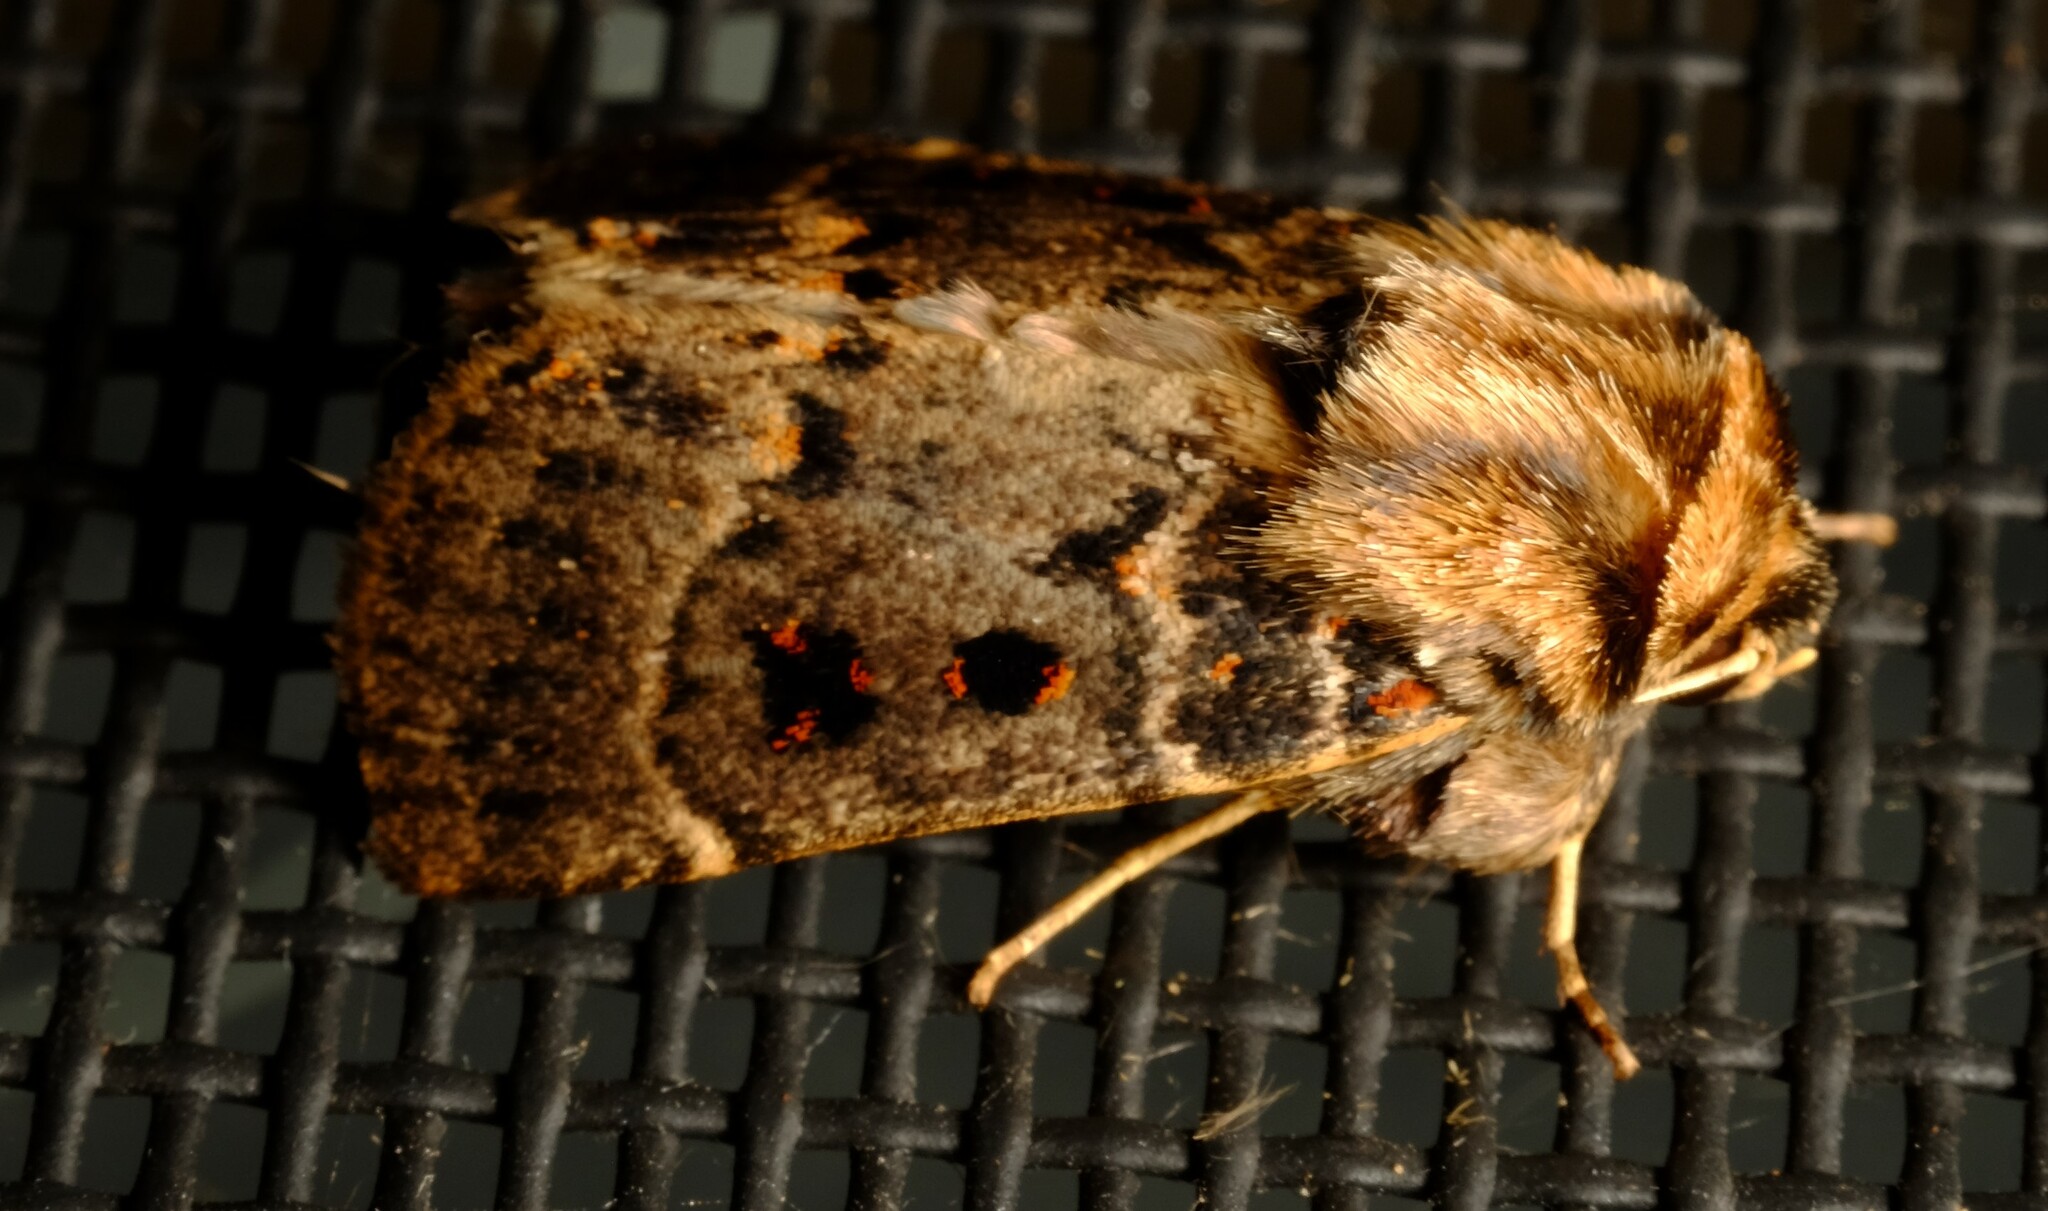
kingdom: Animalia
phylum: Arthropoda
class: Insecta
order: Lepidoptera
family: Noctuidae
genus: Proteuxoa
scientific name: Proteuxoa sanguinipuncta
